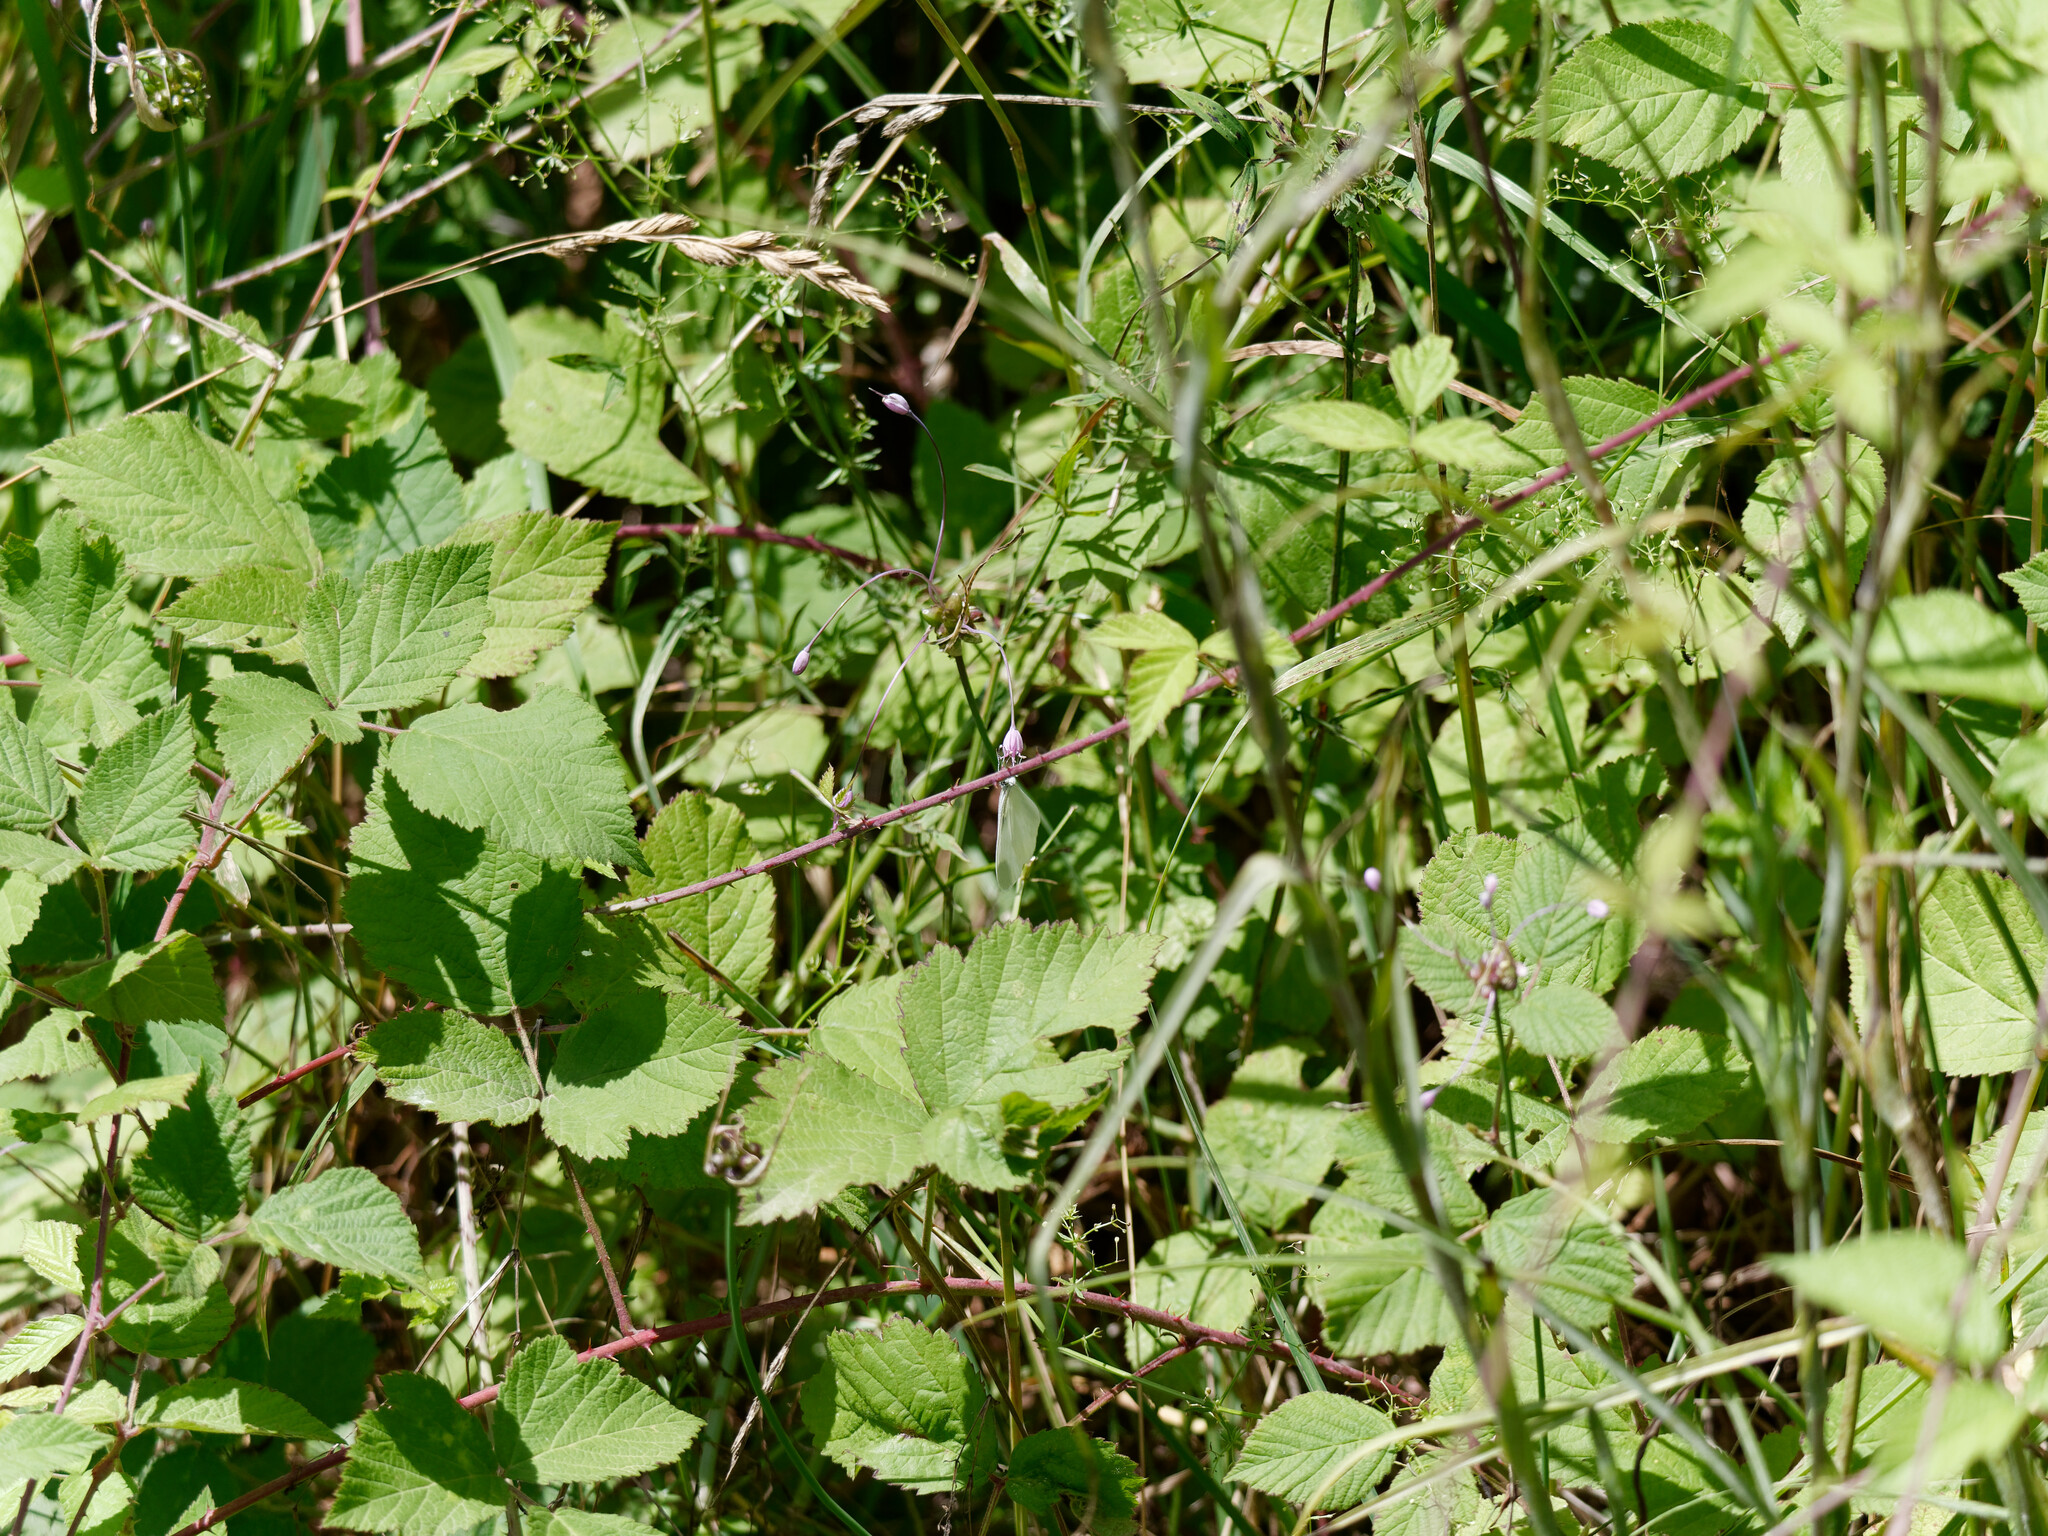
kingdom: Plantae
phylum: Tracheophyta
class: Liliopsida
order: Asparagales
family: Amaryllidaceae
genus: Allium
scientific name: Allium carinatum
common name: Keeled garlic
